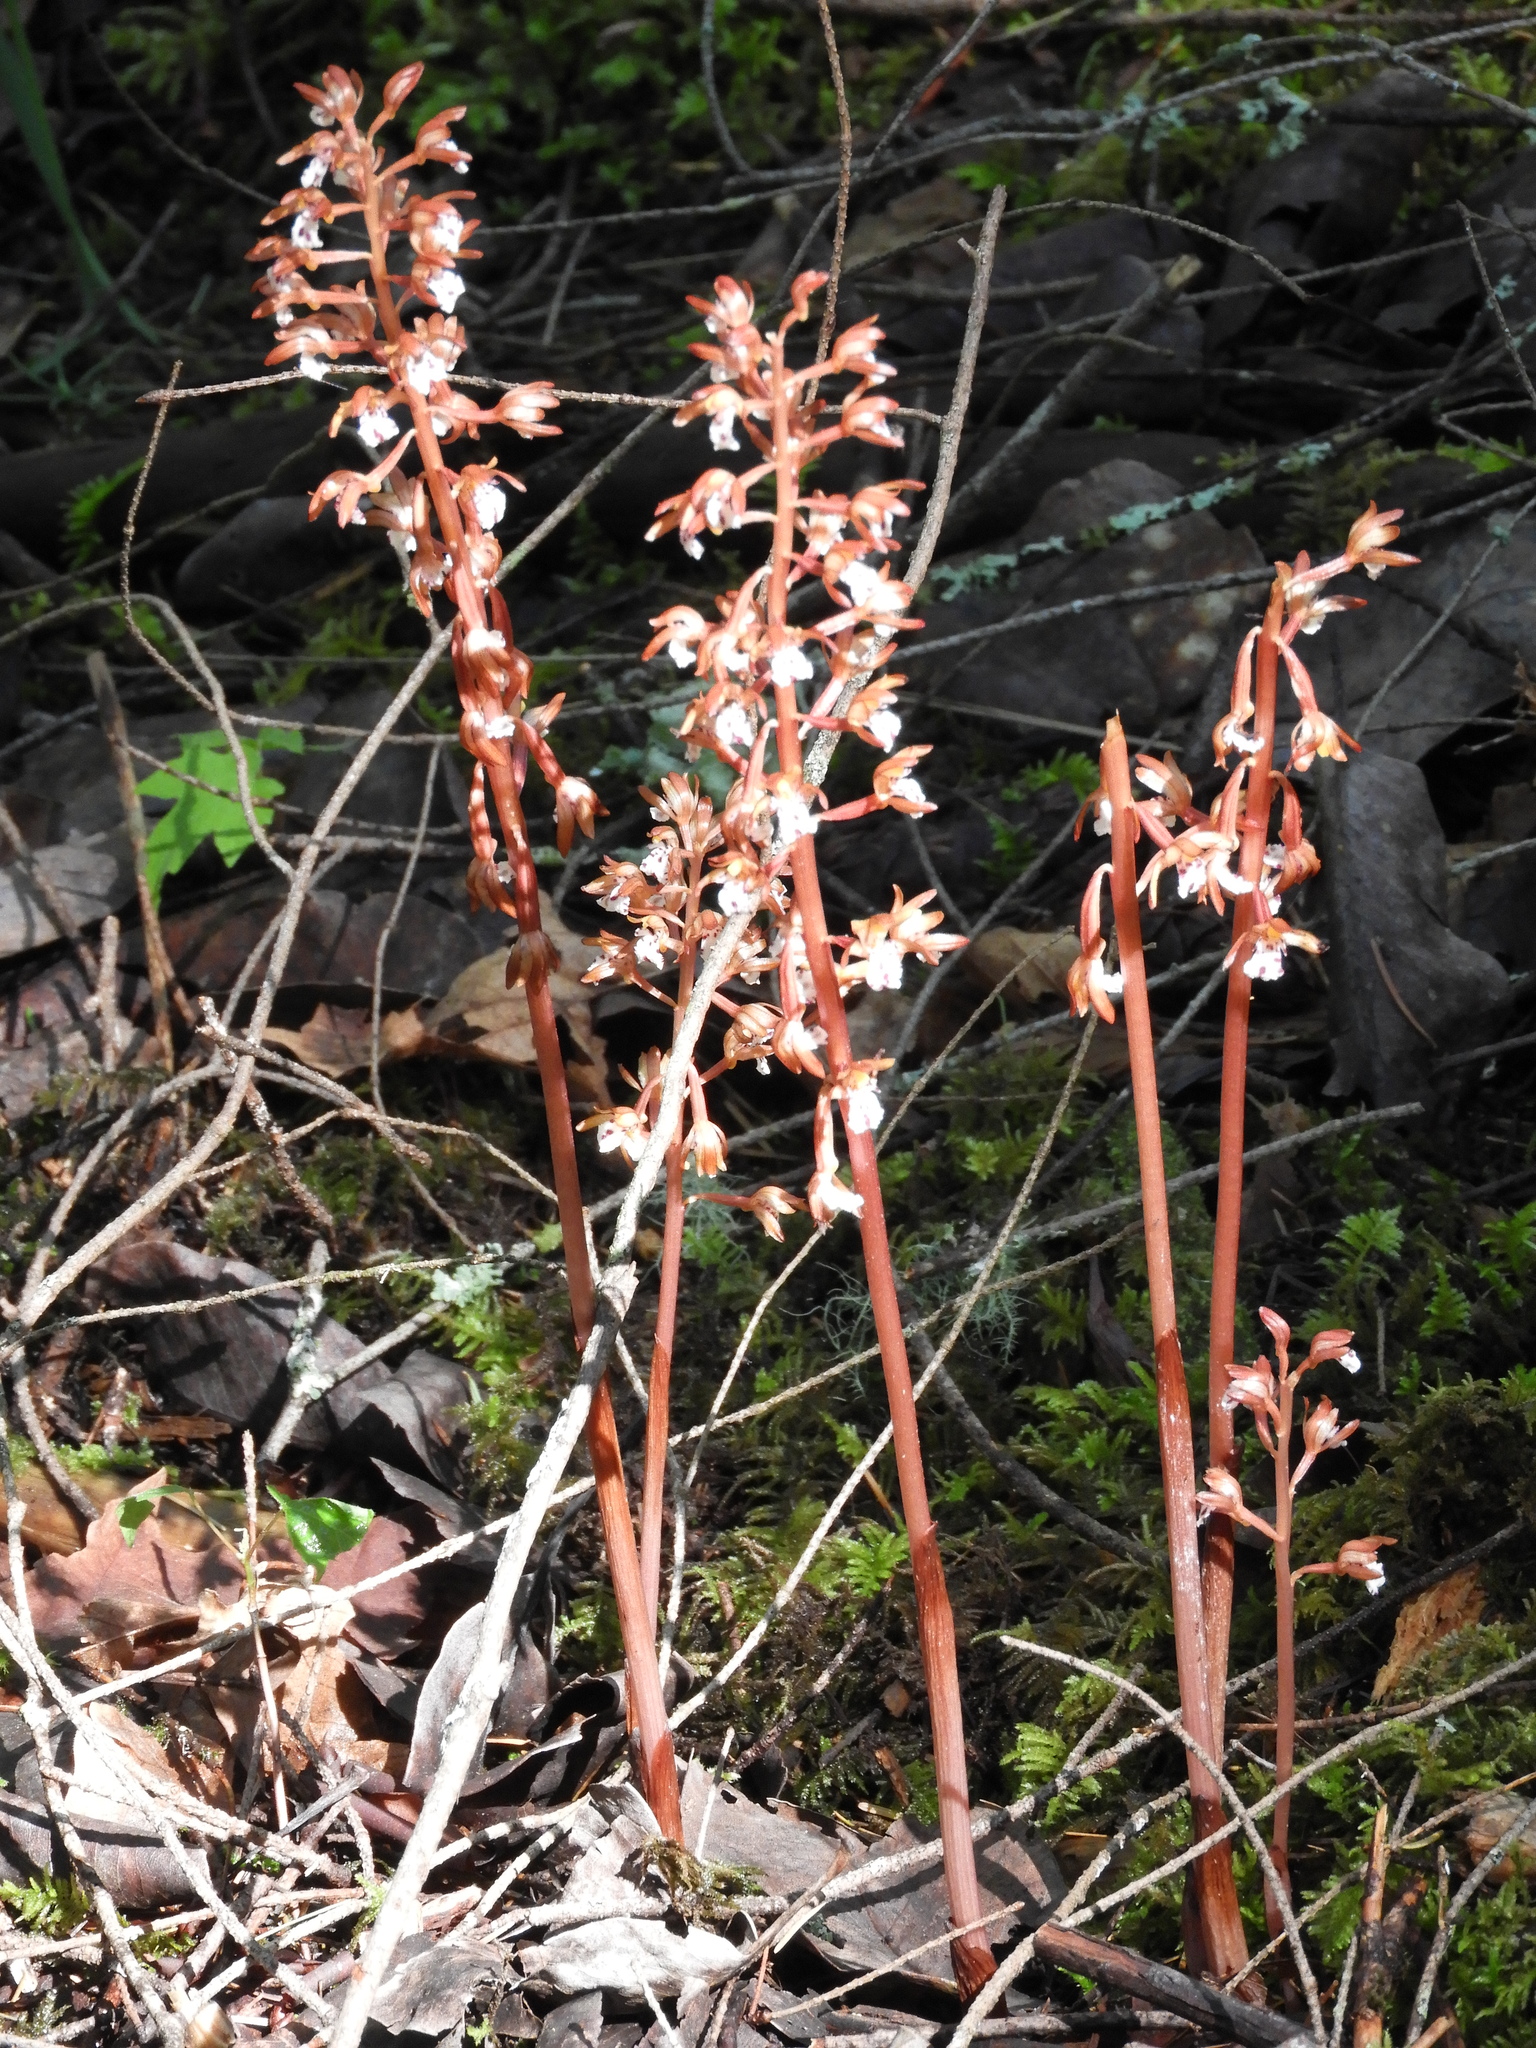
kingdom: Plantae
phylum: Tracheophyta
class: Liliopsida
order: Asparagales
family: Orchidaceae
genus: Corallorhiza
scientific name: Corallorhiza maculata
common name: Spotted coralroot
